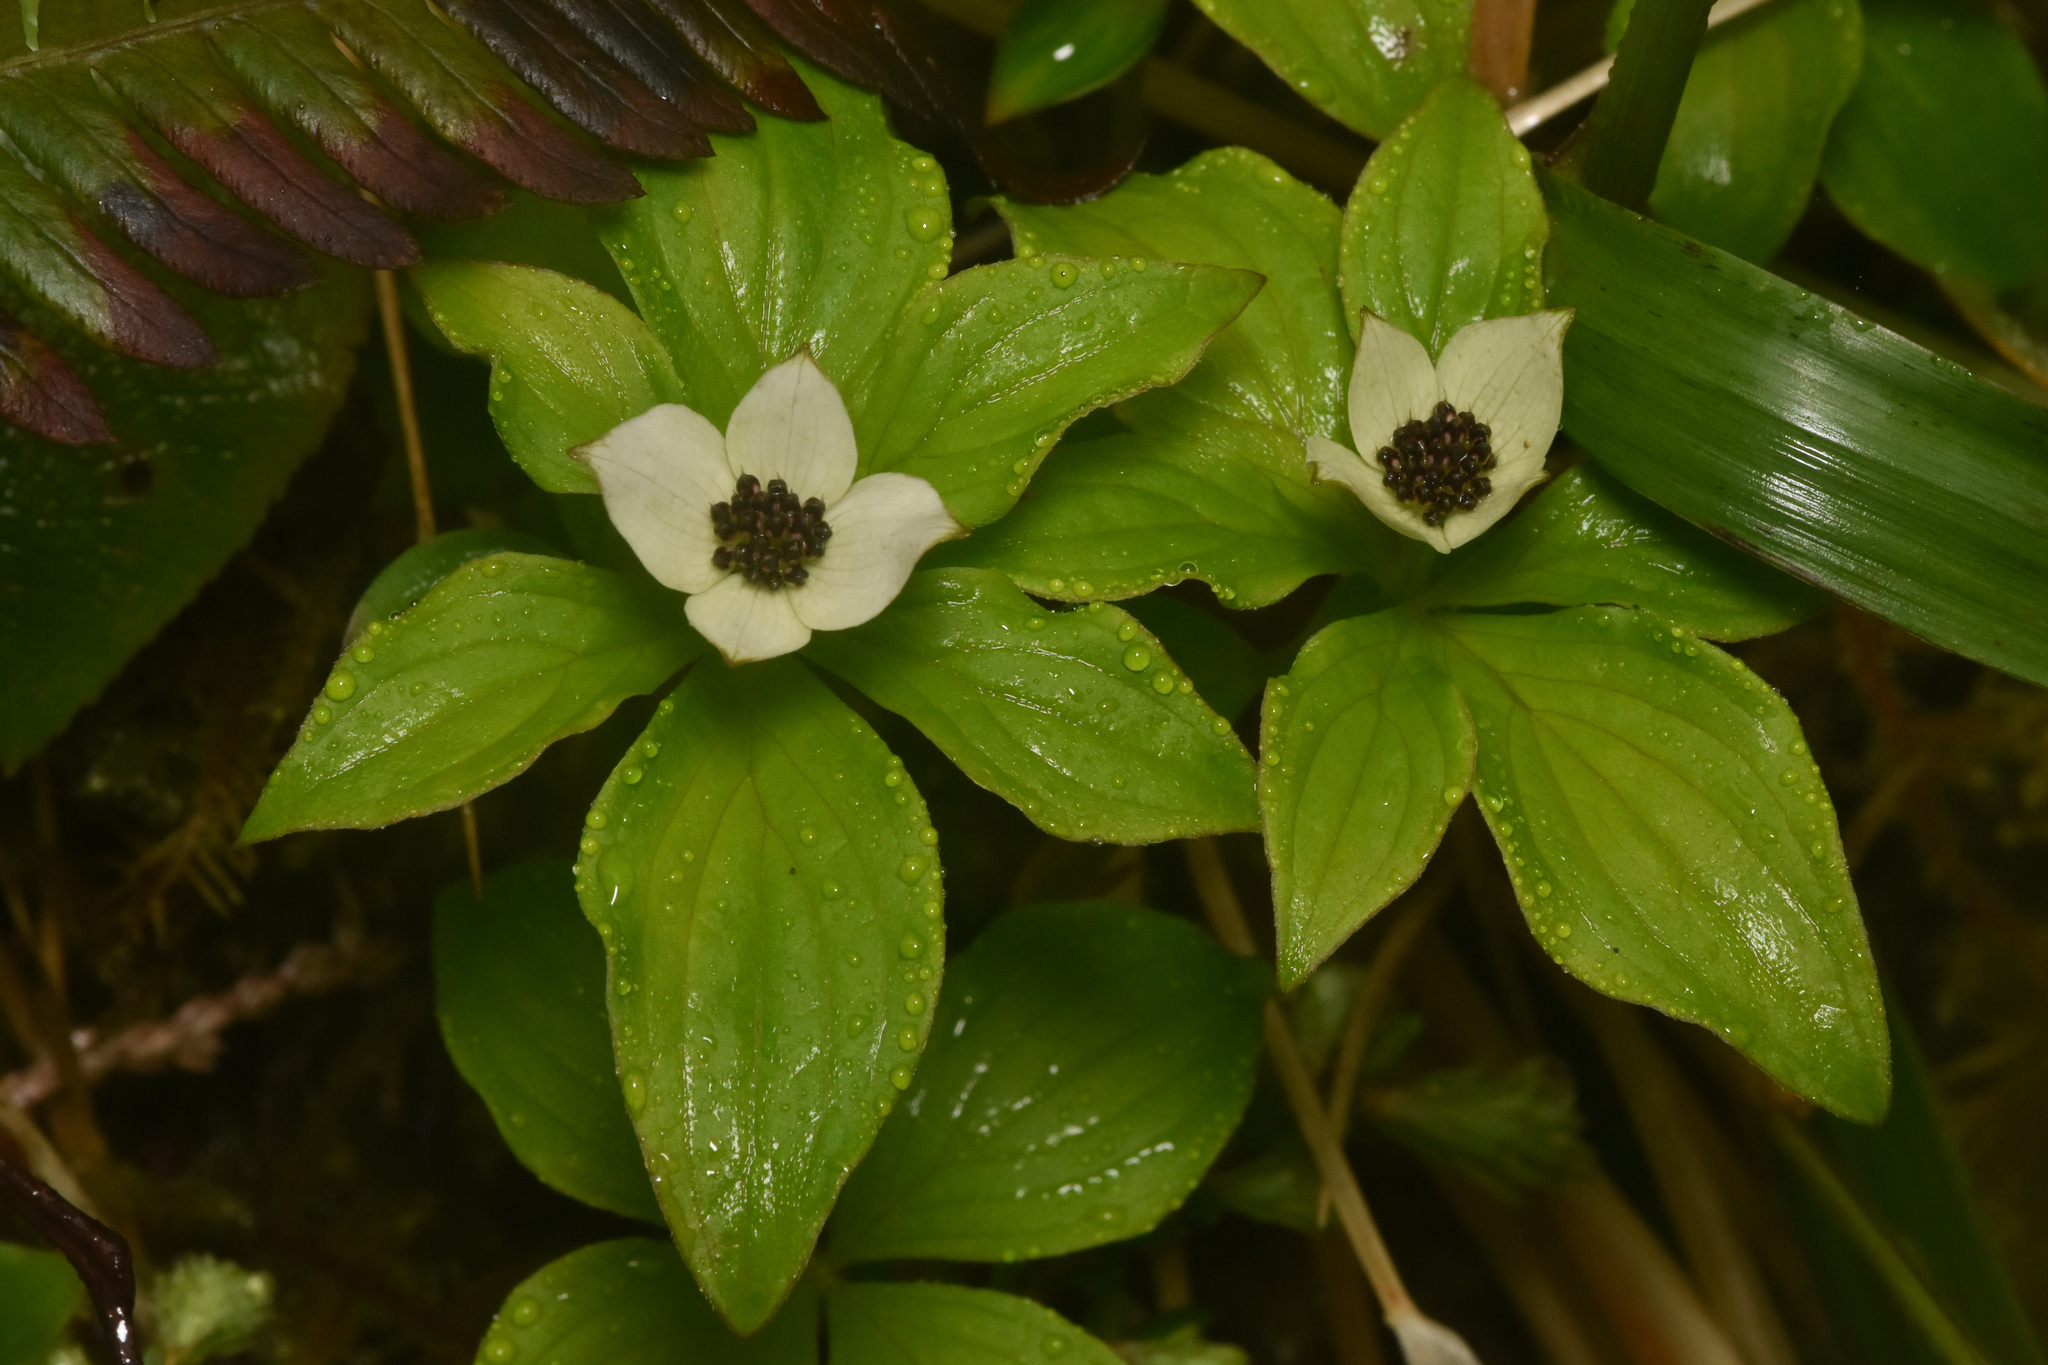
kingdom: Plantae
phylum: Tracheophyta
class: Magnoliopsida
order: Cornales
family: Cornaceae
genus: Cornus
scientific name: Cornus unalaschkensis
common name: Alaska bunchberry
